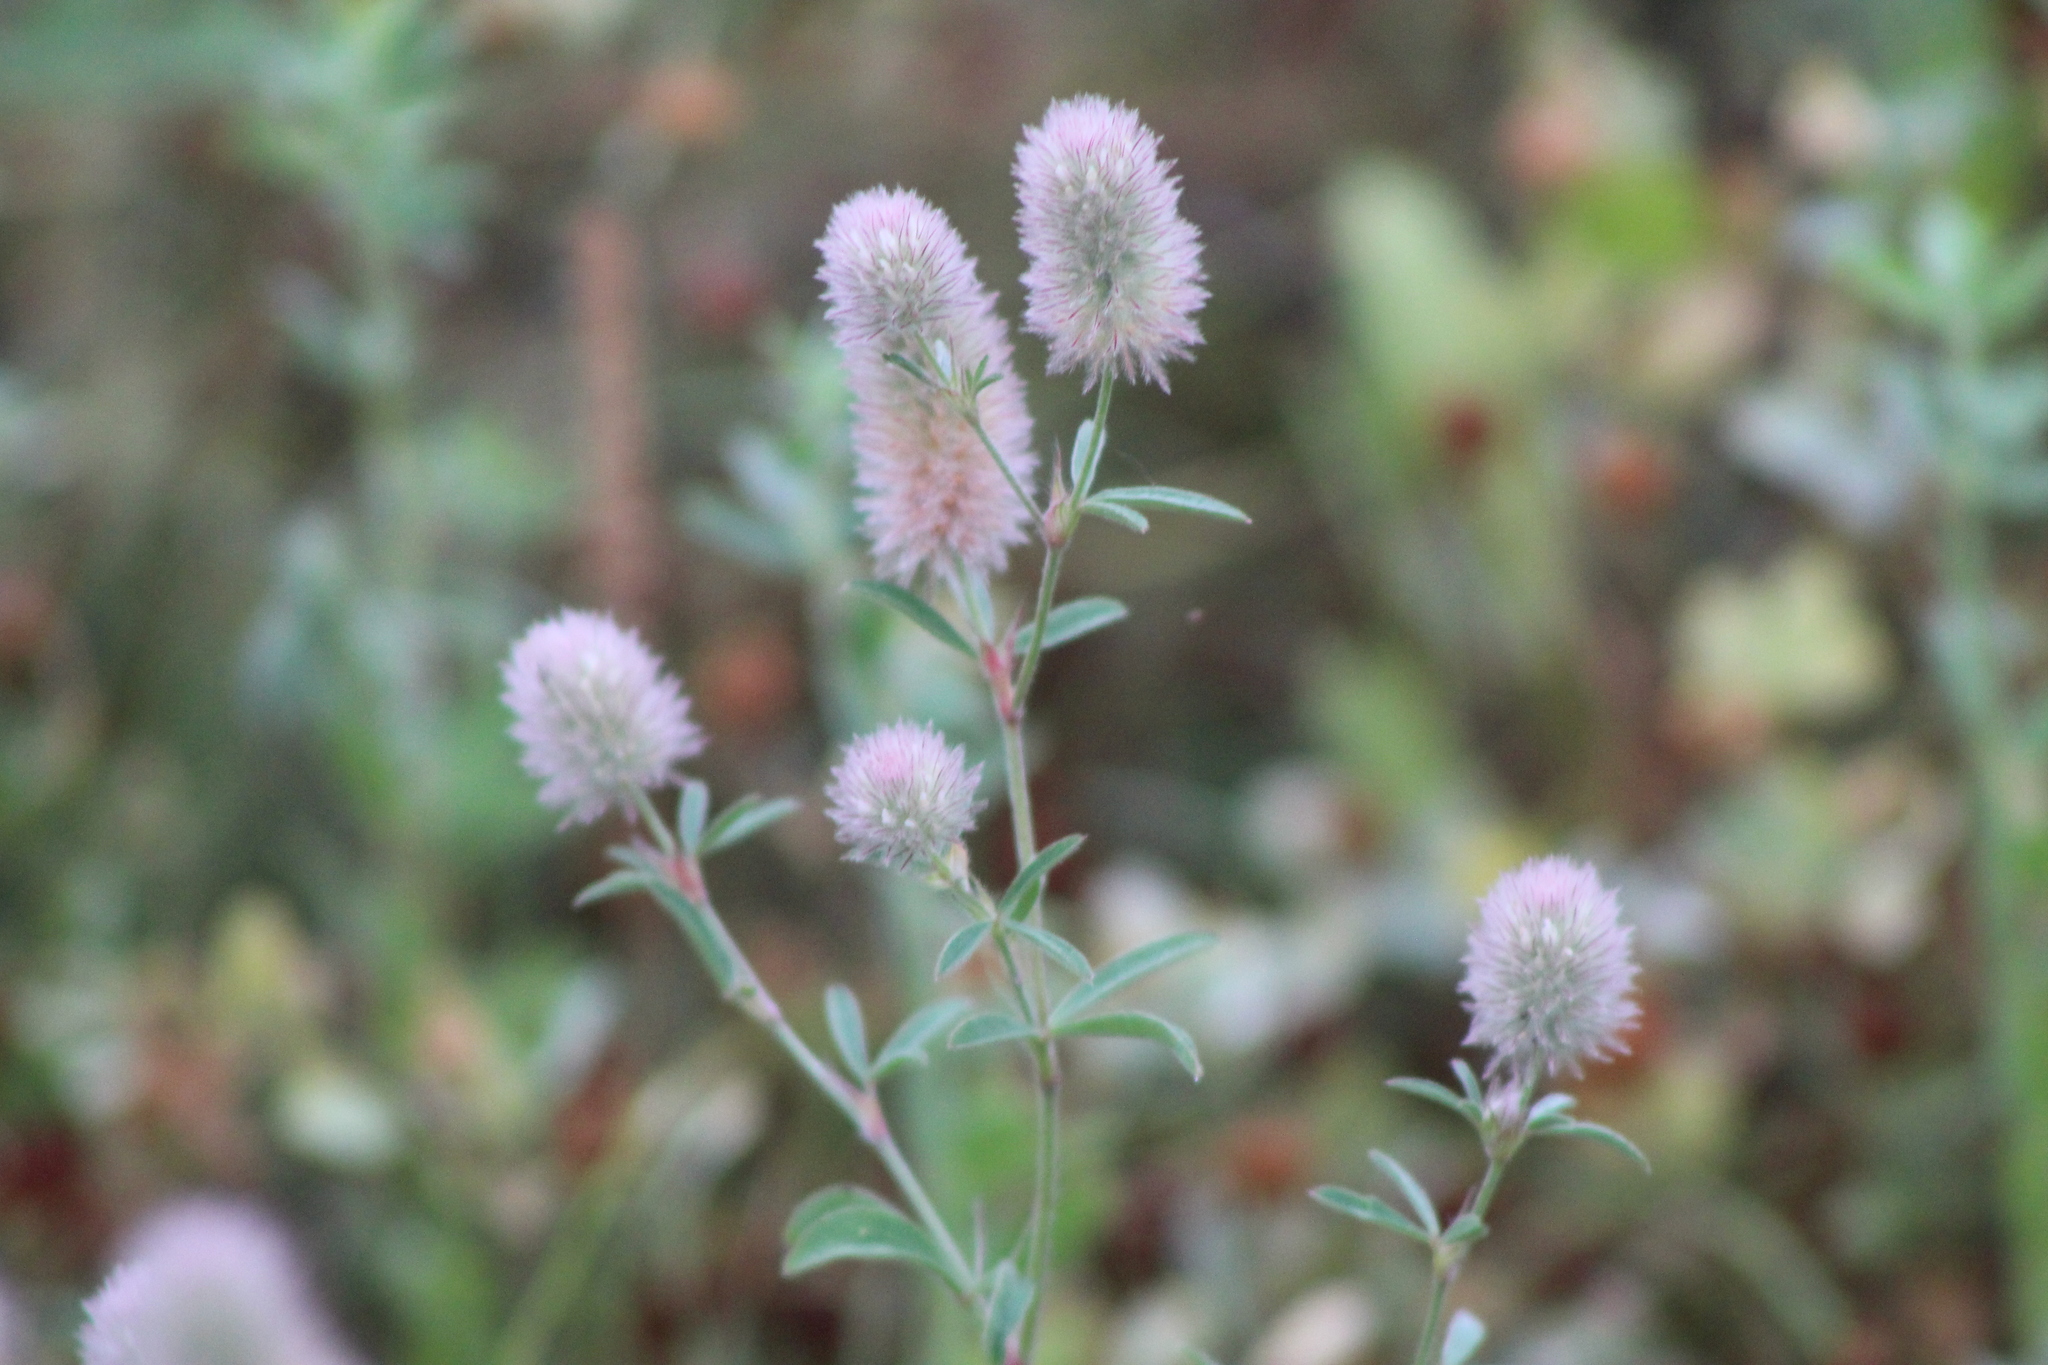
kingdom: Plantae
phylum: Tracheophyta
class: Magnoliopsida
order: Fabales
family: Fabaceae
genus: Trifolium
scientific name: Trifolium arvense
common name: Hare's-foot clover
